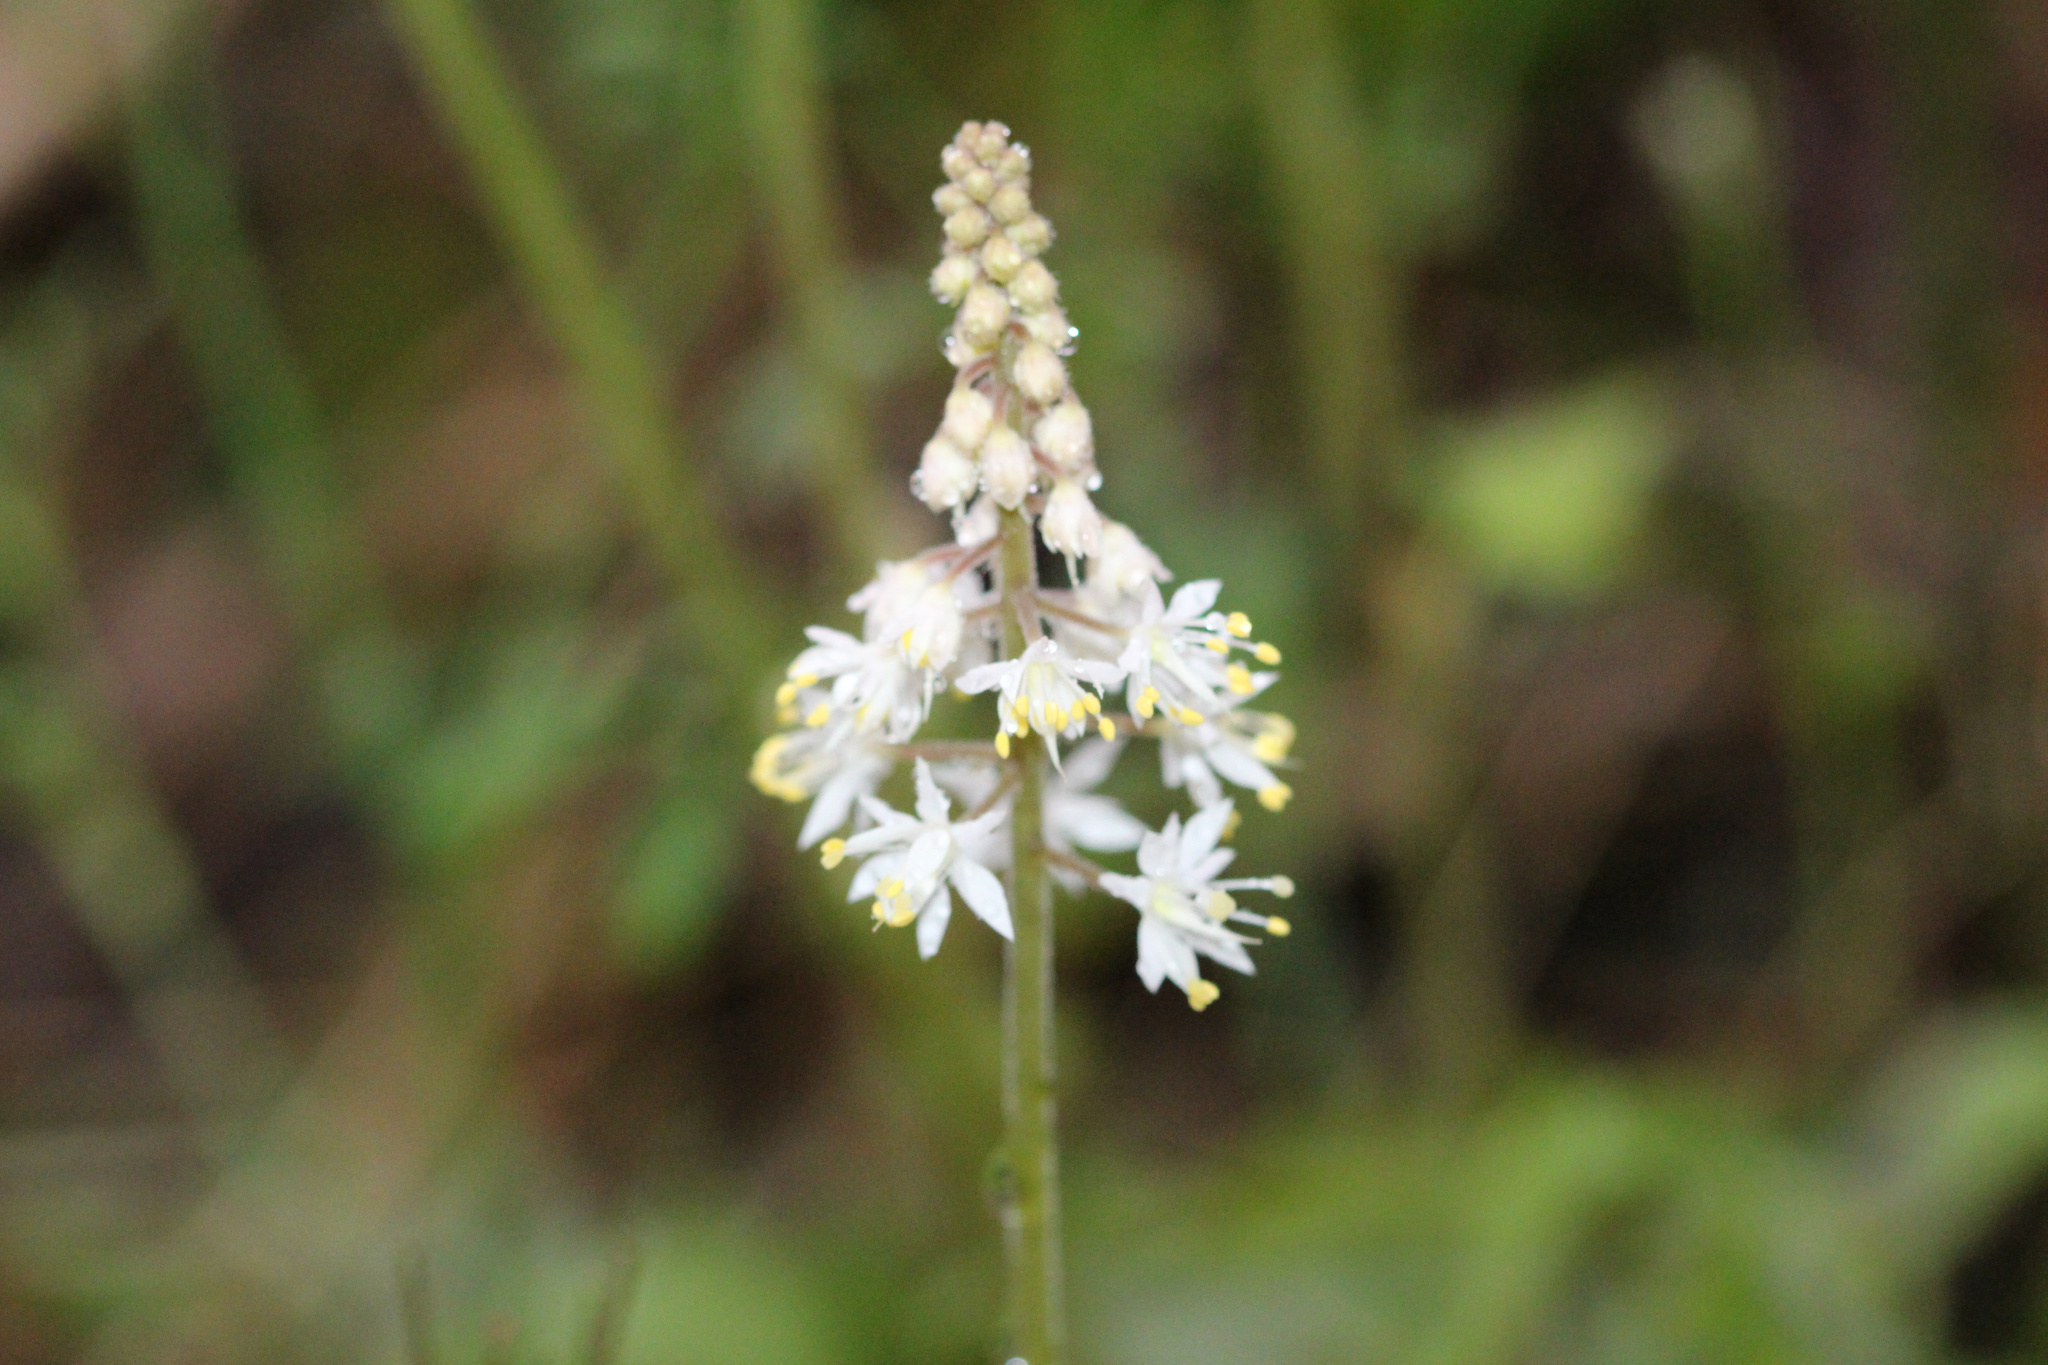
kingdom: Plantae
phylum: Tracheophyta
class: Magnoliopsida
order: Saxifragales
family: Saxifragaceae
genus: Tiarella
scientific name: Tiarella wherryi
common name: Tufted foamflower
